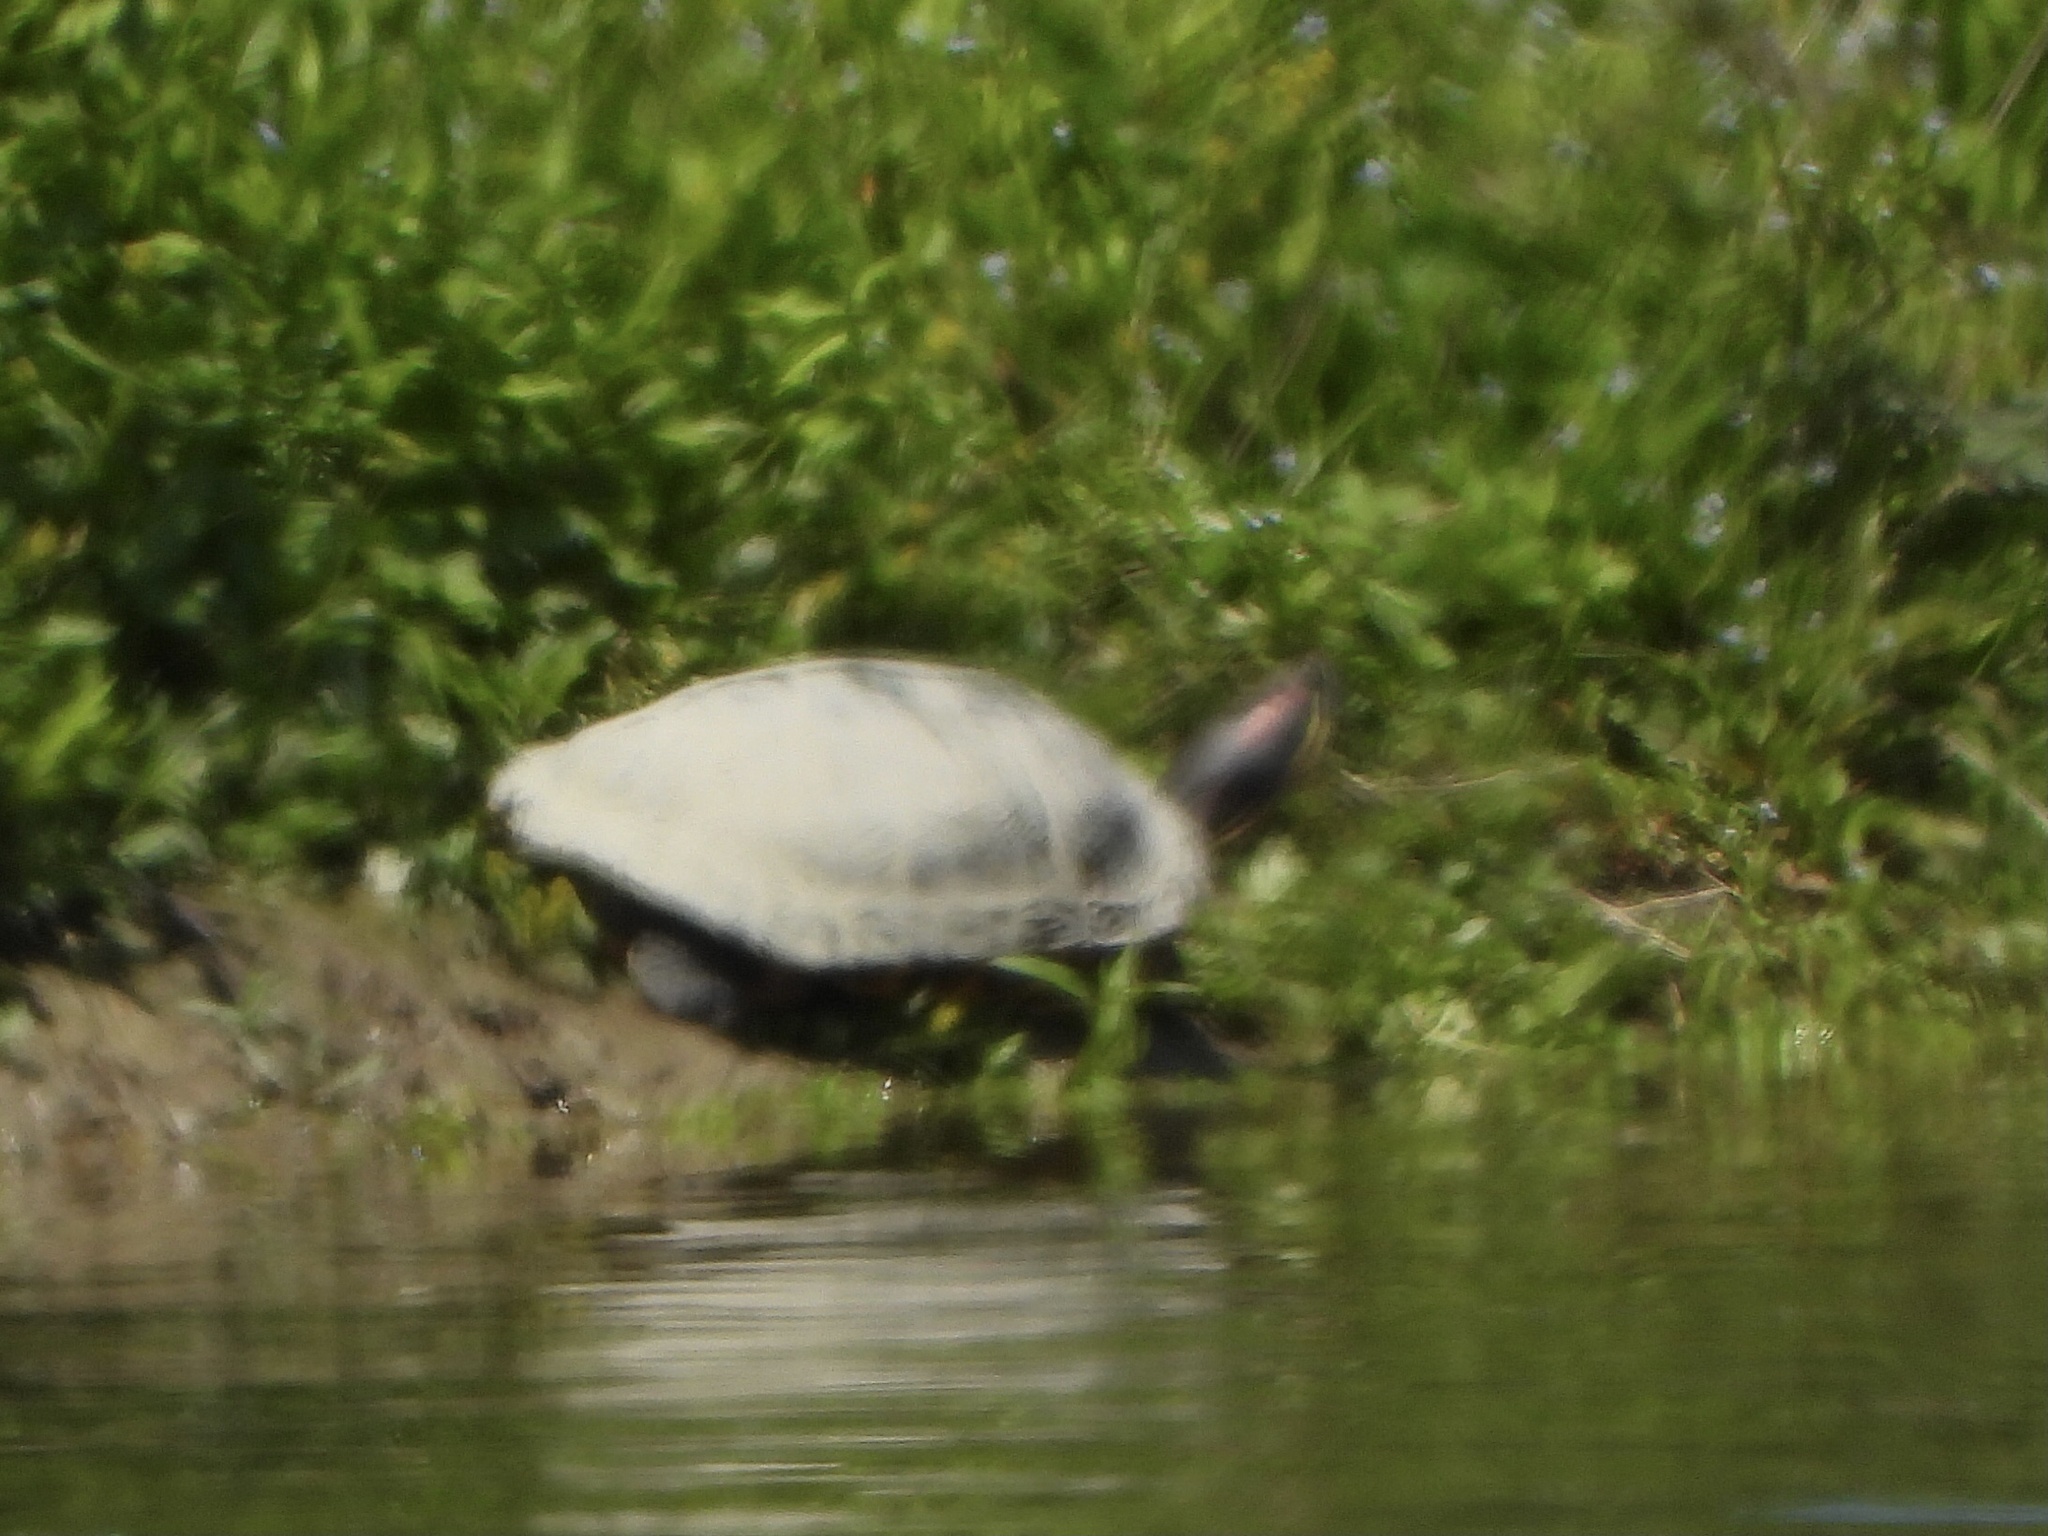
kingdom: Animalia
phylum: Chordata
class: Testudines
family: Emydidae
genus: Trachemys
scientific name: Trachemys scripta
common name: Slider
